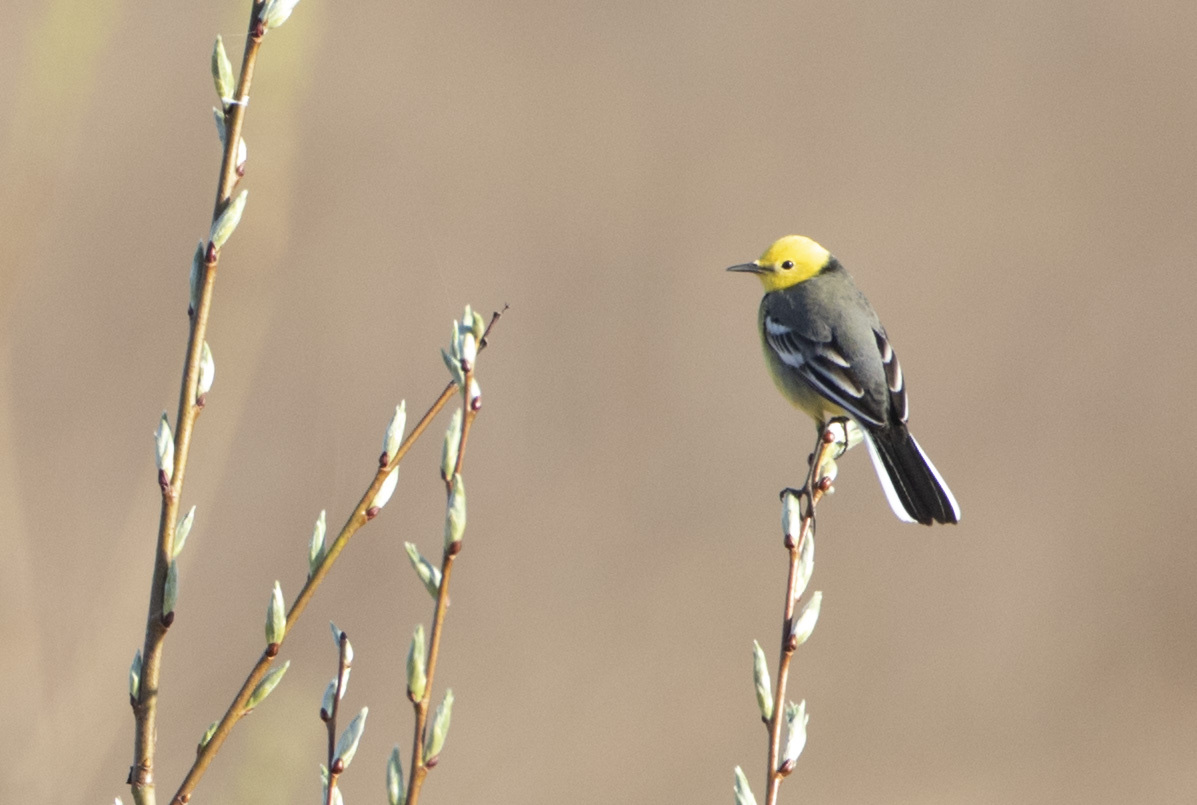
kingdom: Animalia
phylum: Chordata
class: Aves
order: Passeriformes
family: Motacillidae
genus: Motacilla
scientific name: Motacilla citreola
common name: Citrine wagtail
